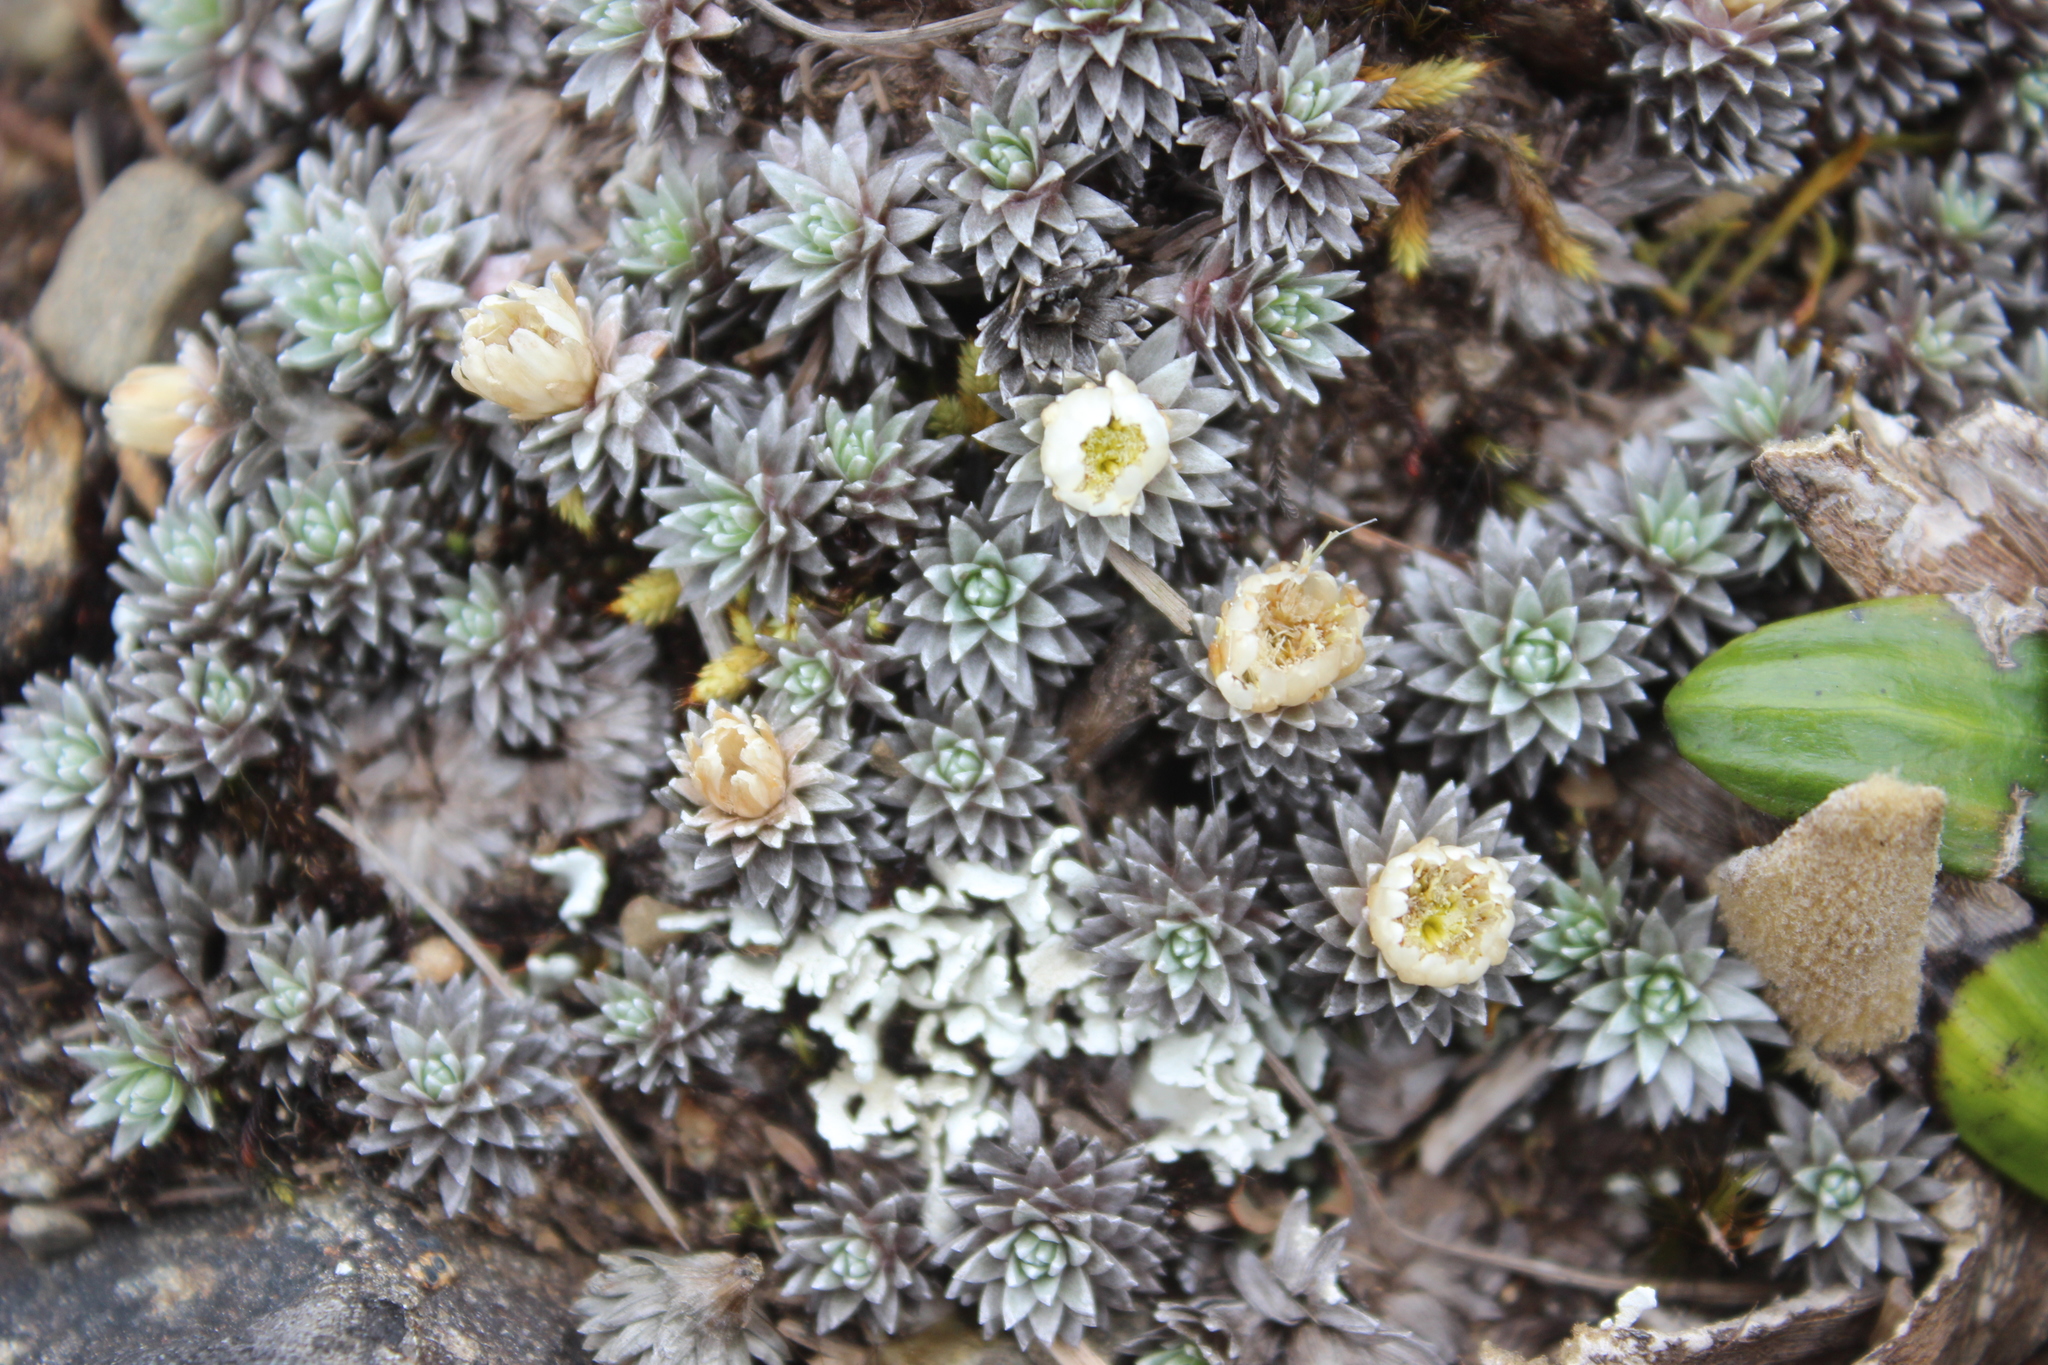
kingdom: Plantae
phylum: Tracheophyta
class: Magnoliopsida
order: Asterales
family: Asteraceae
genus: Raoulia
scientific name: Raoulia grandiflora
